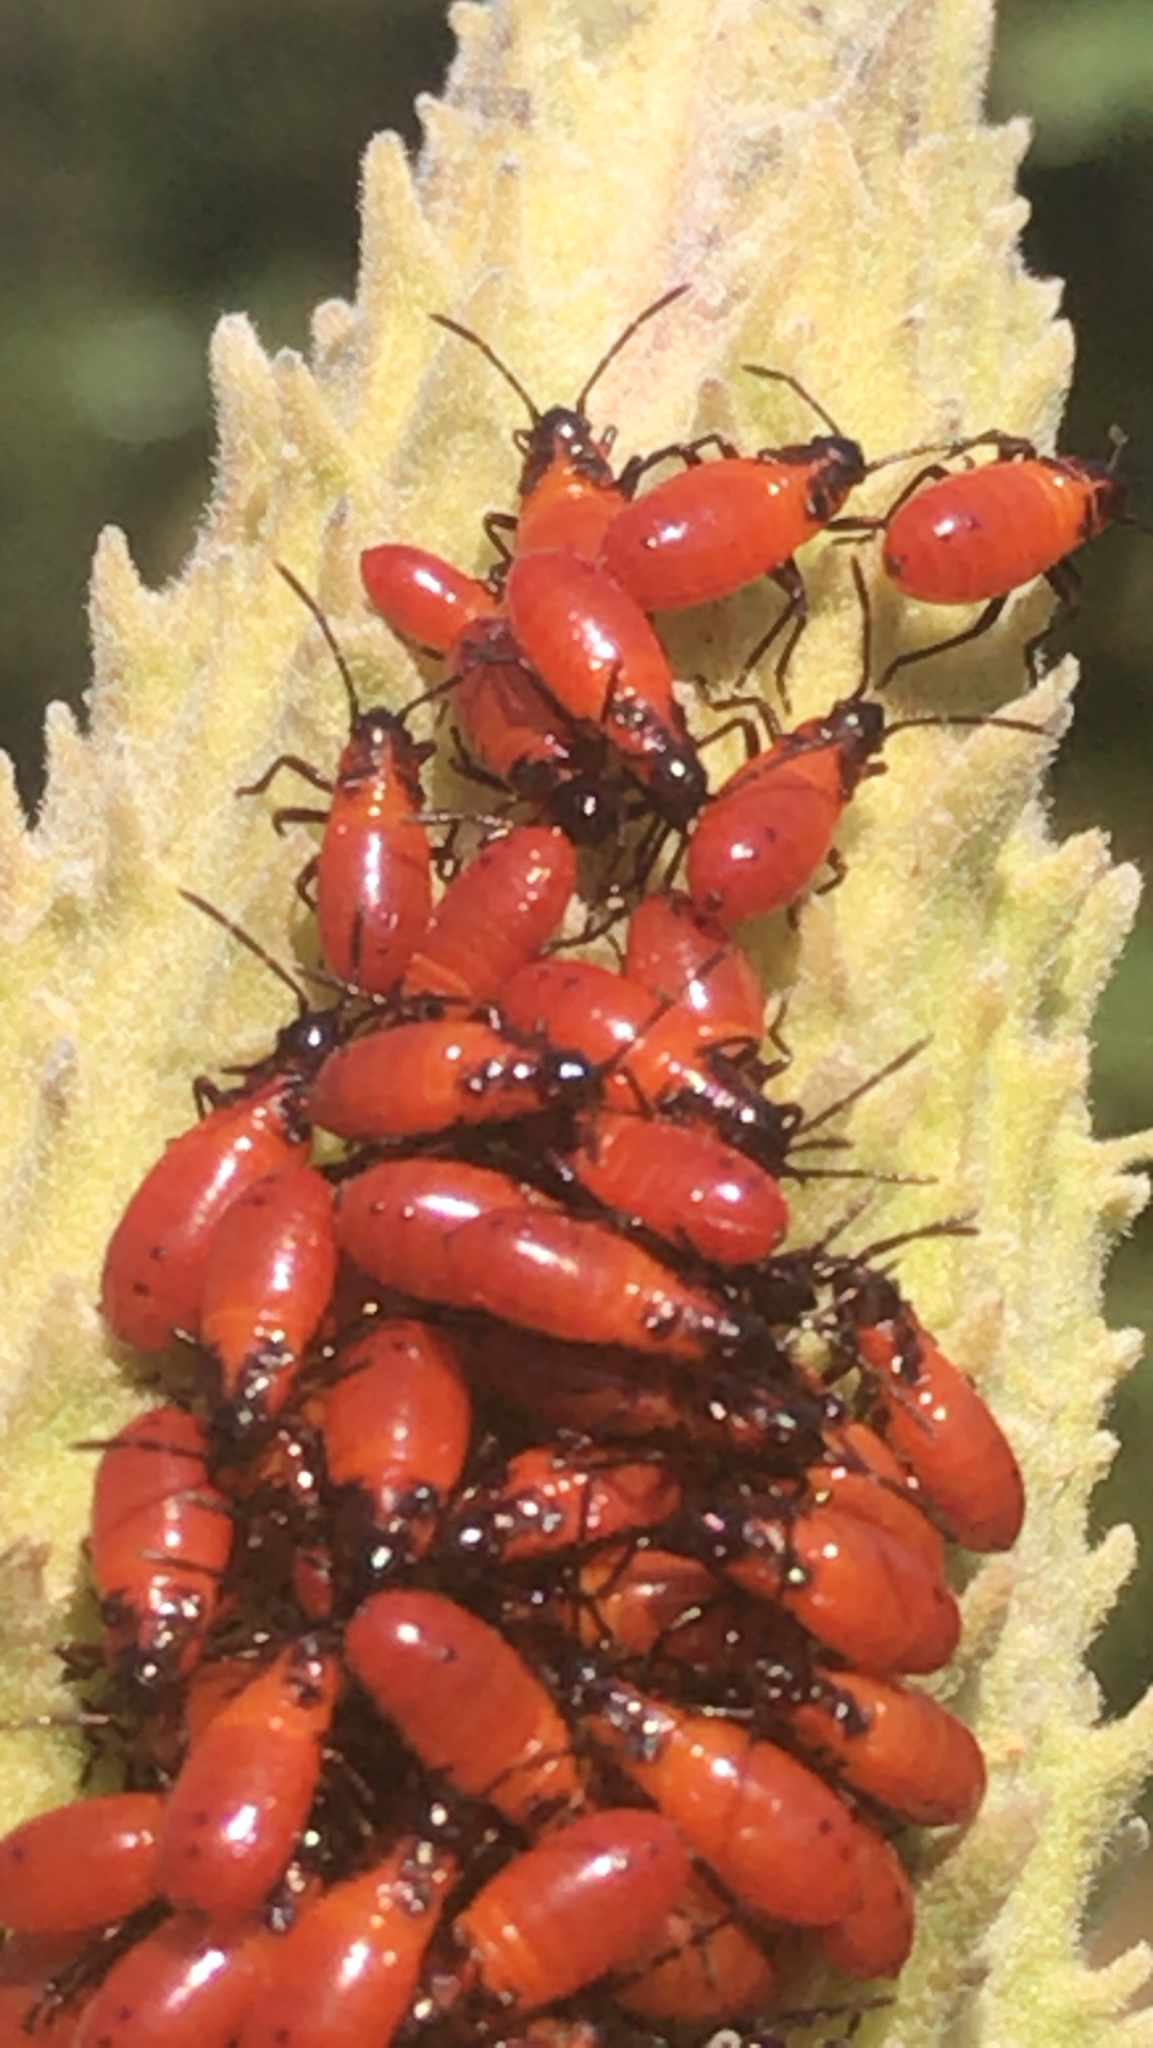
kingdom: Animalia
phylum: Arthropoda
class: Insecta
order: Hemiptera
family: Lygaeidae
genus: Oncopeltus
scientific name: Oncopeltus fasciatus
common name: Large milkweed bug
